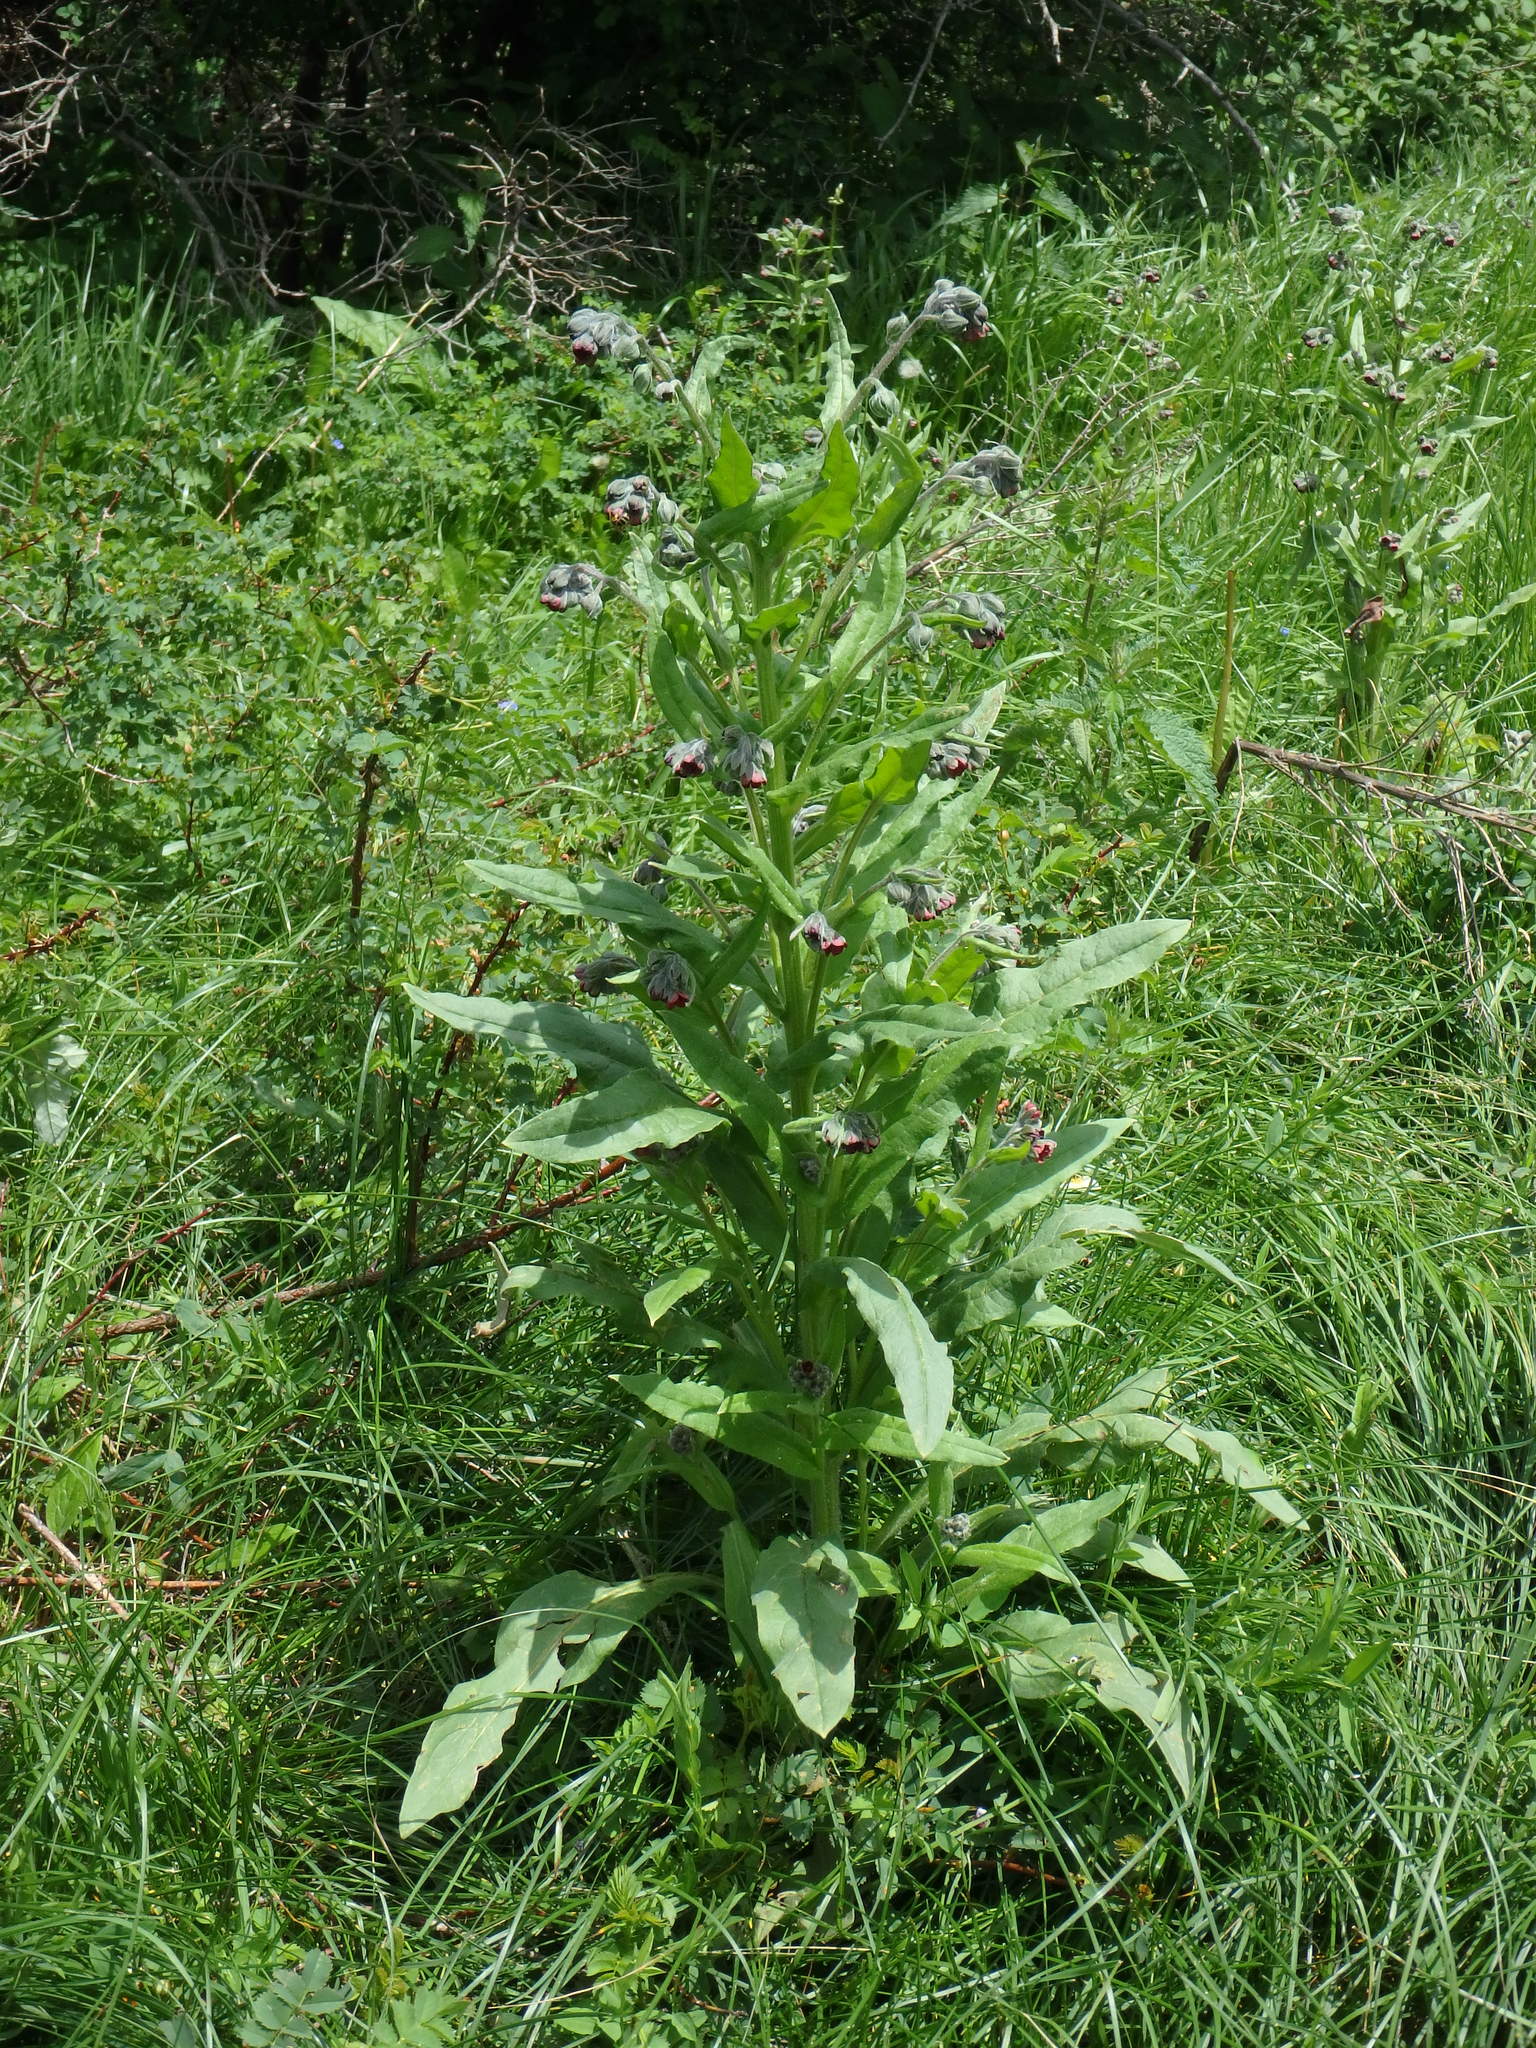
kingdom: Plantae
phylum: Tracheophyta
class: Magnoliopsida
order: Boraginales
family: Boraginaceae
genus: Cynoglossum
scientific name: Cynoglossum officinale
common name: Hound's-tongue
